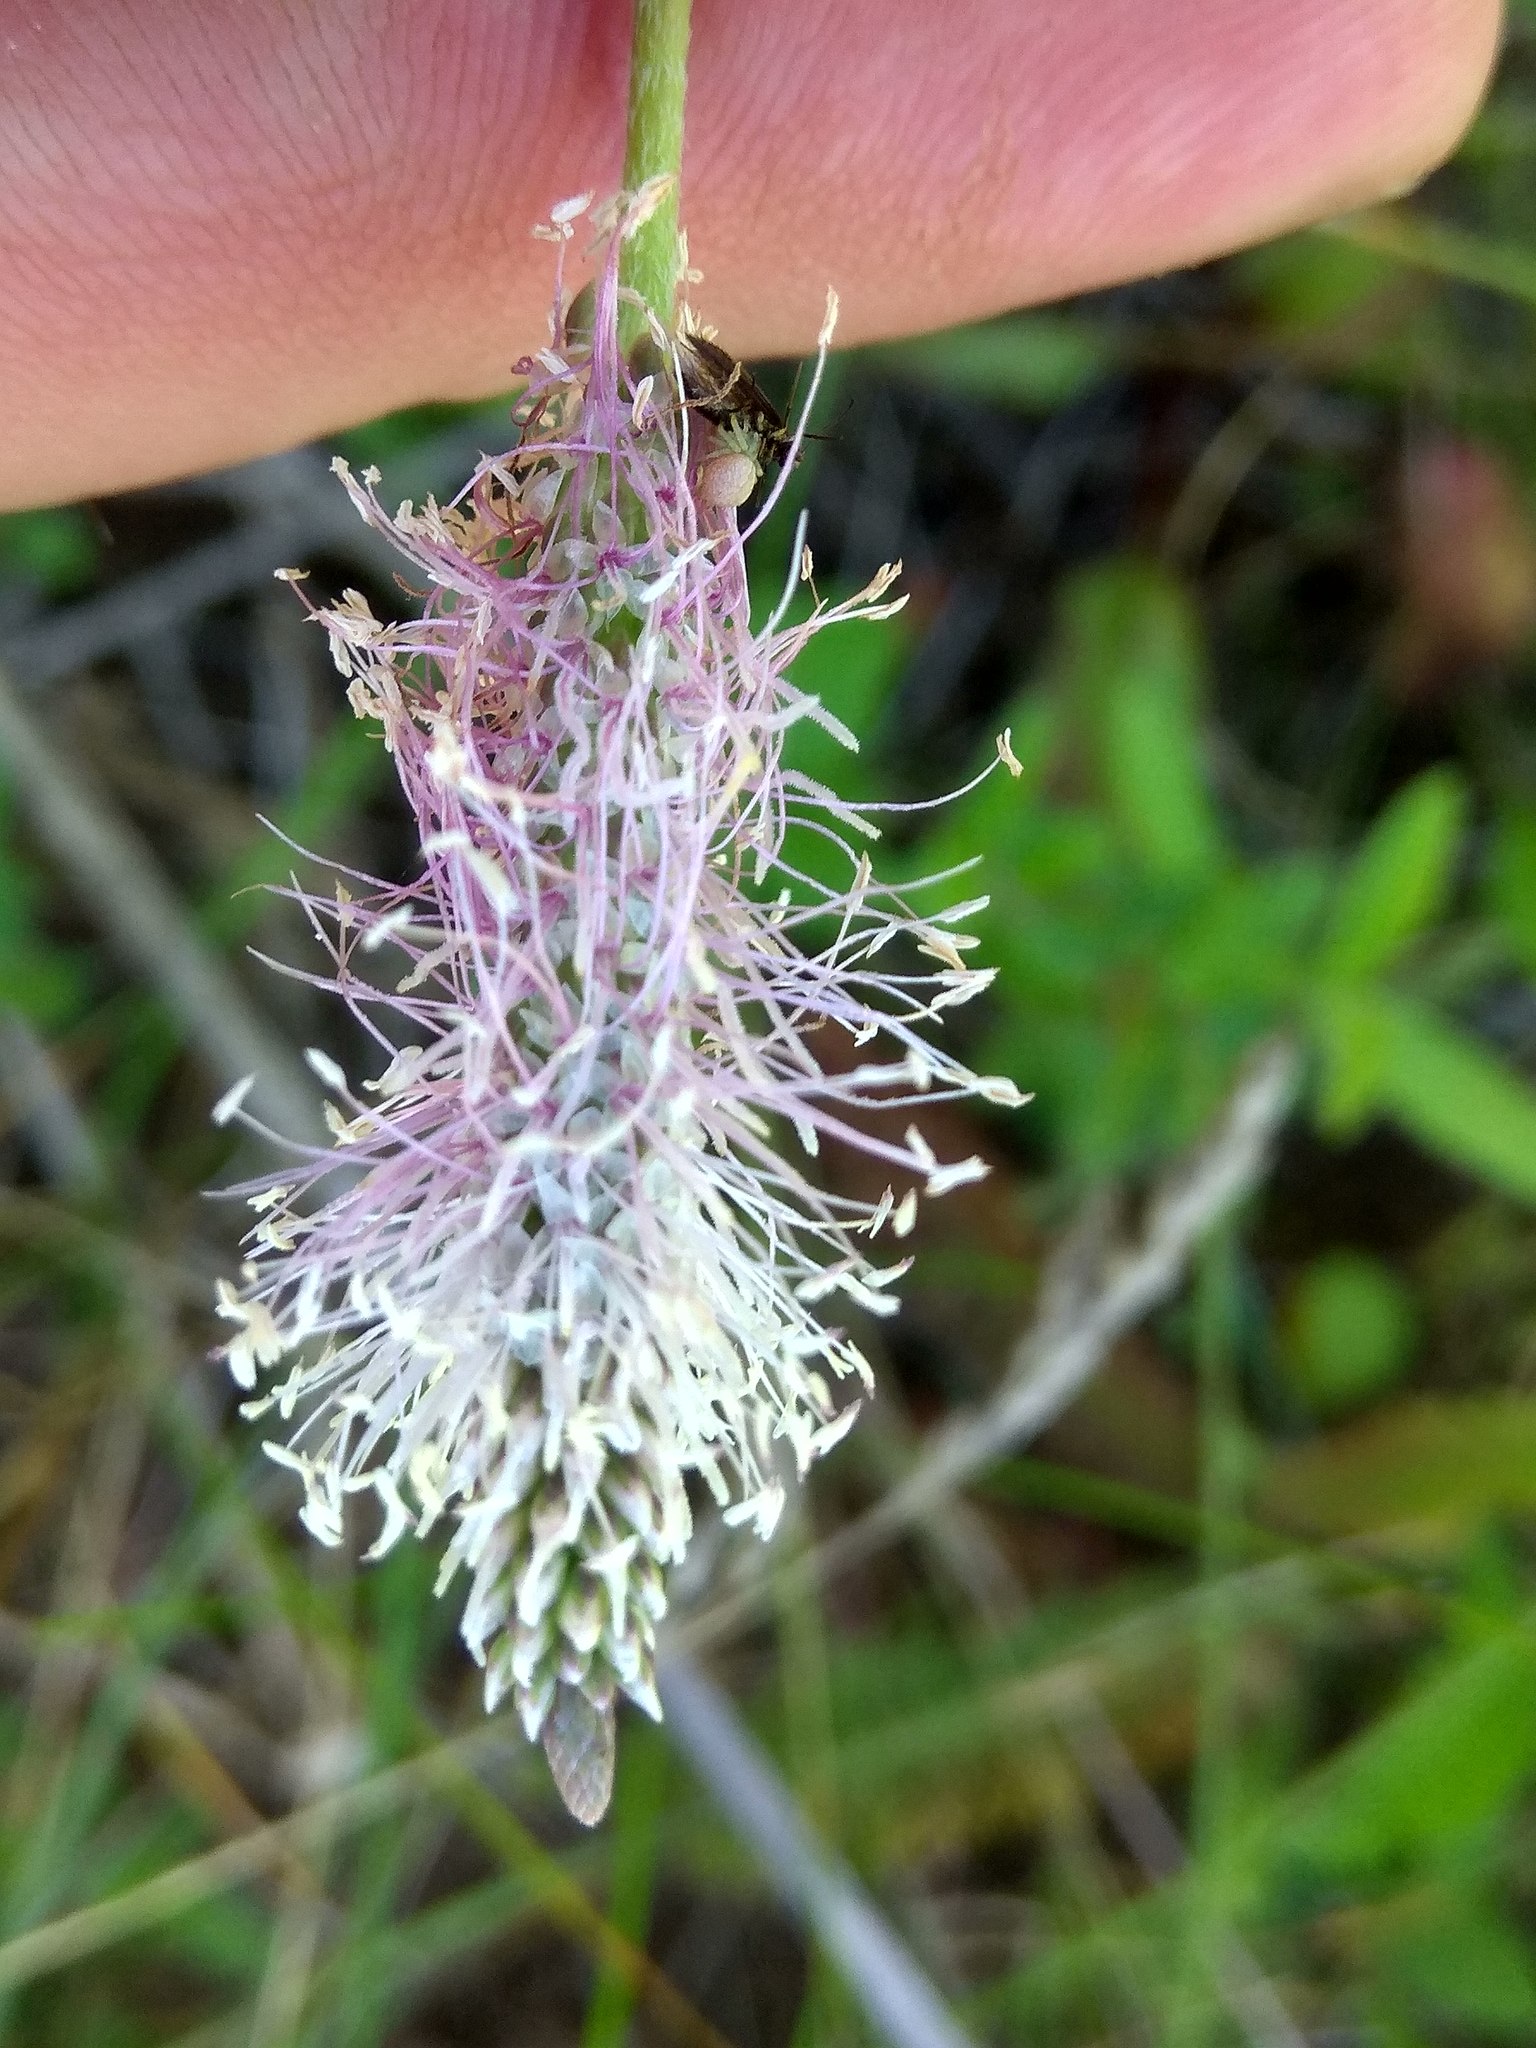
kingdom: Plantae
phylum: Tracheophyta
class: Magnoliopsida
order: Lamiales
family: Plantaginaceae
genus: Plantago
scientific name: Plantago media
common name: Hoary plantain
